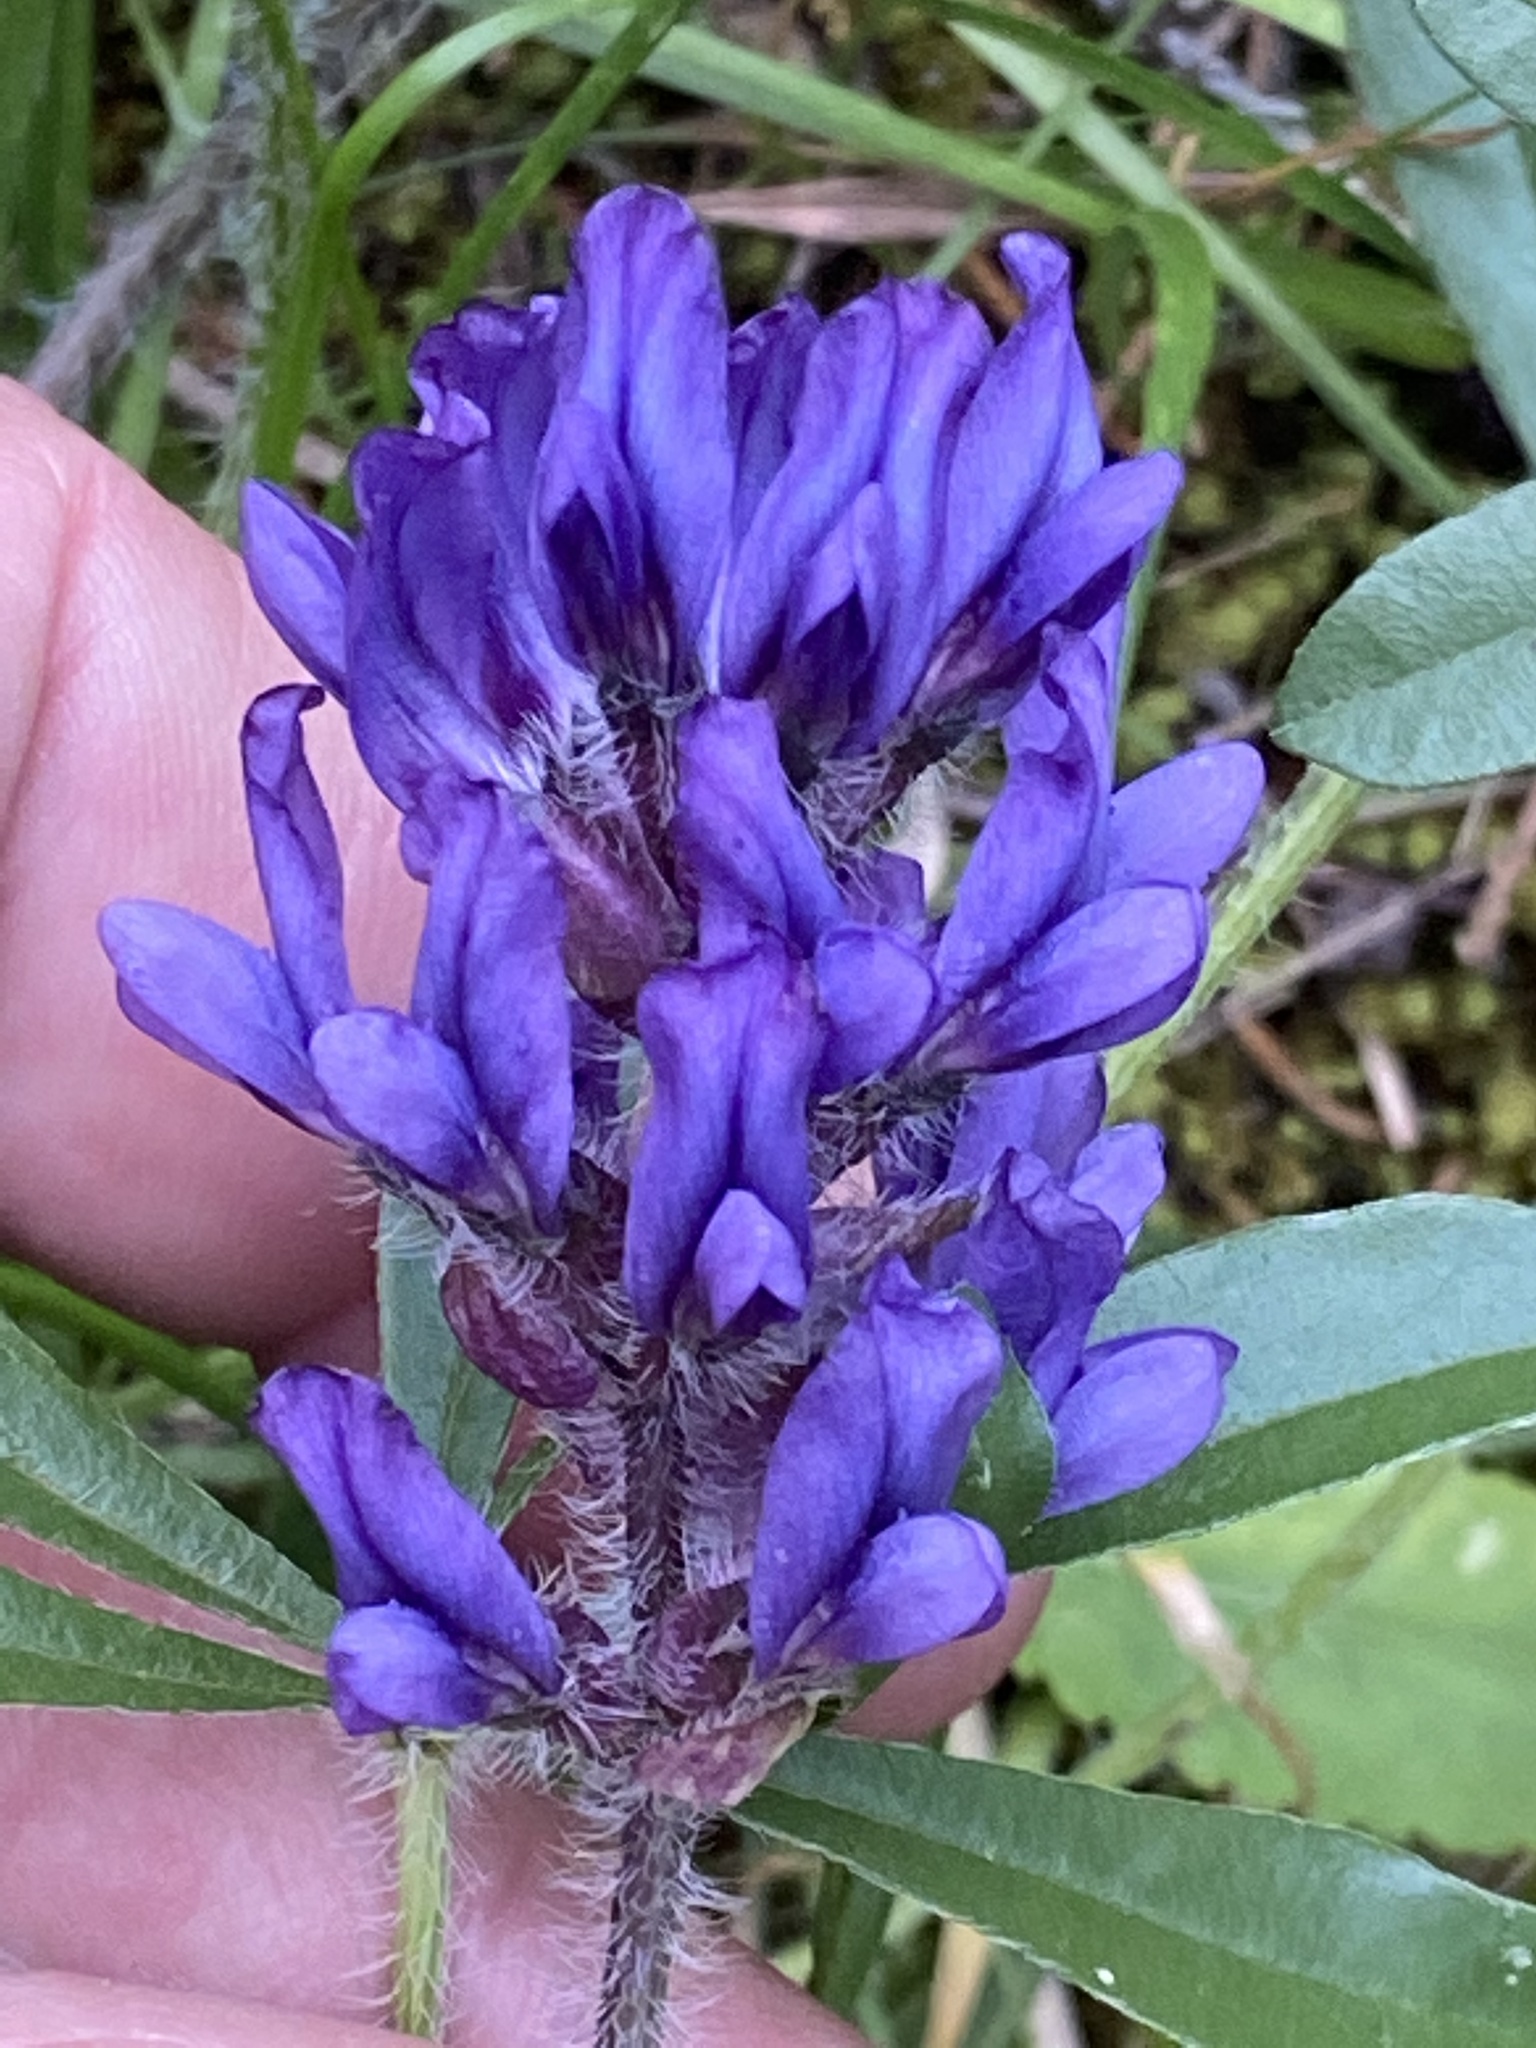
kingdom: Plantae
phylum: Tracheophyta
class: Magnoliopsida
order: Fabales
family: Fabaceae
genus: Pediomelum
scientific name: Pediomelum subacaule
